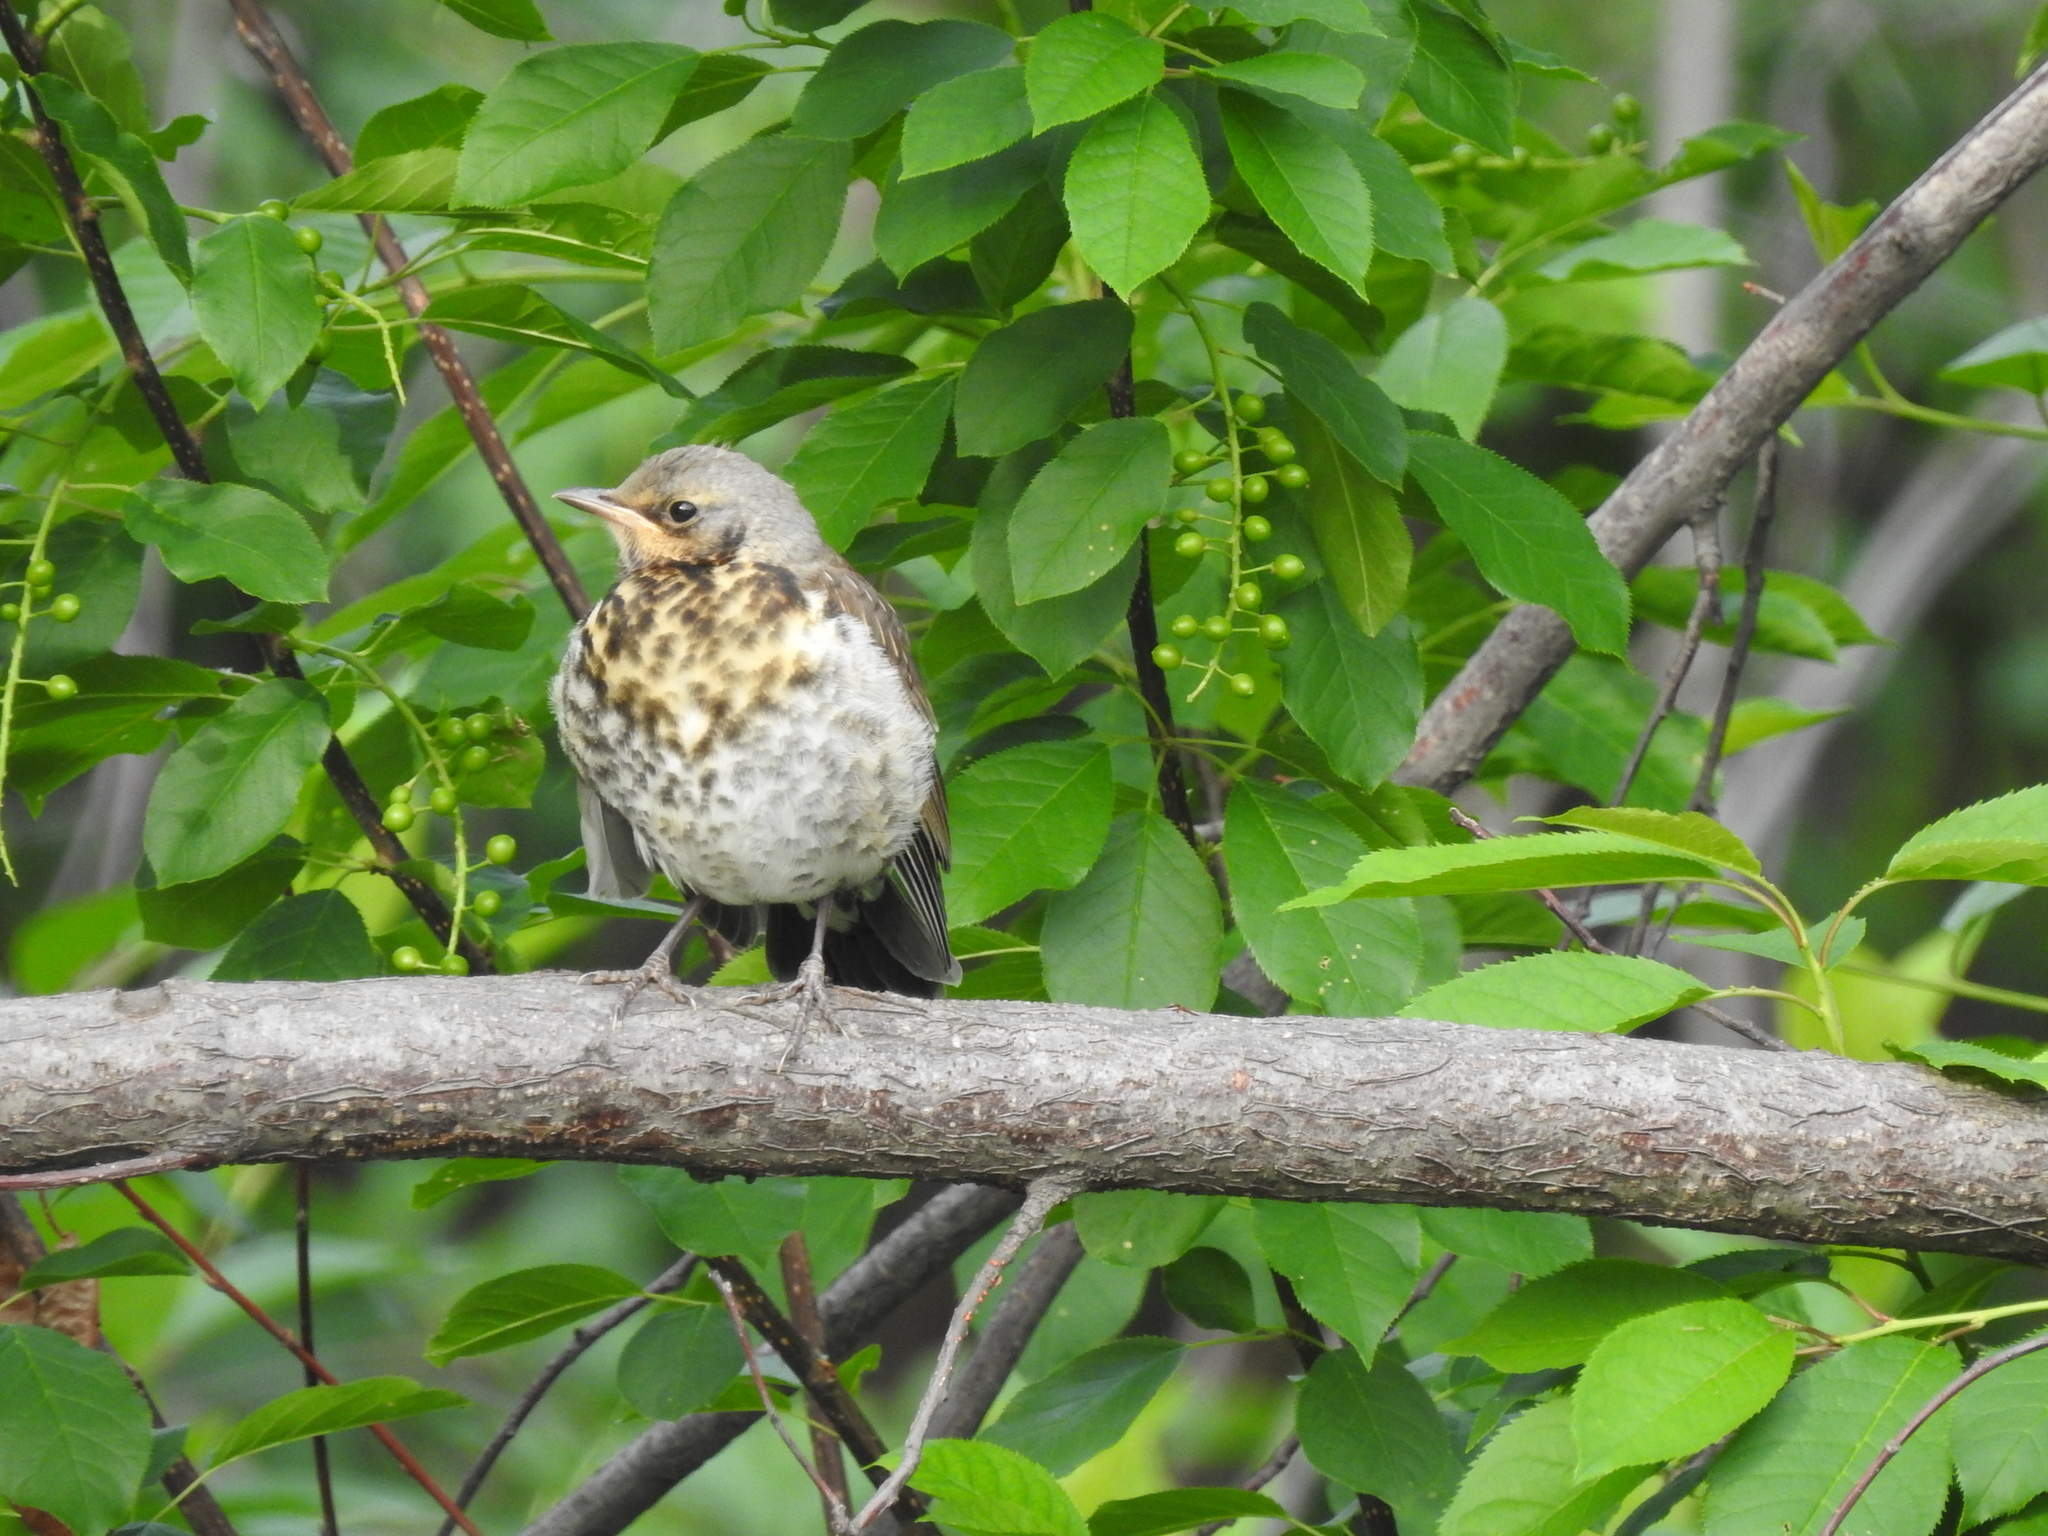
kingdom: Animalia
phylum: Chordata
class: Aves
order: Passeriformes
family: Turdidae
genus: Turdus
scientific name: Turdus pilaris
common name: Fieldfare
